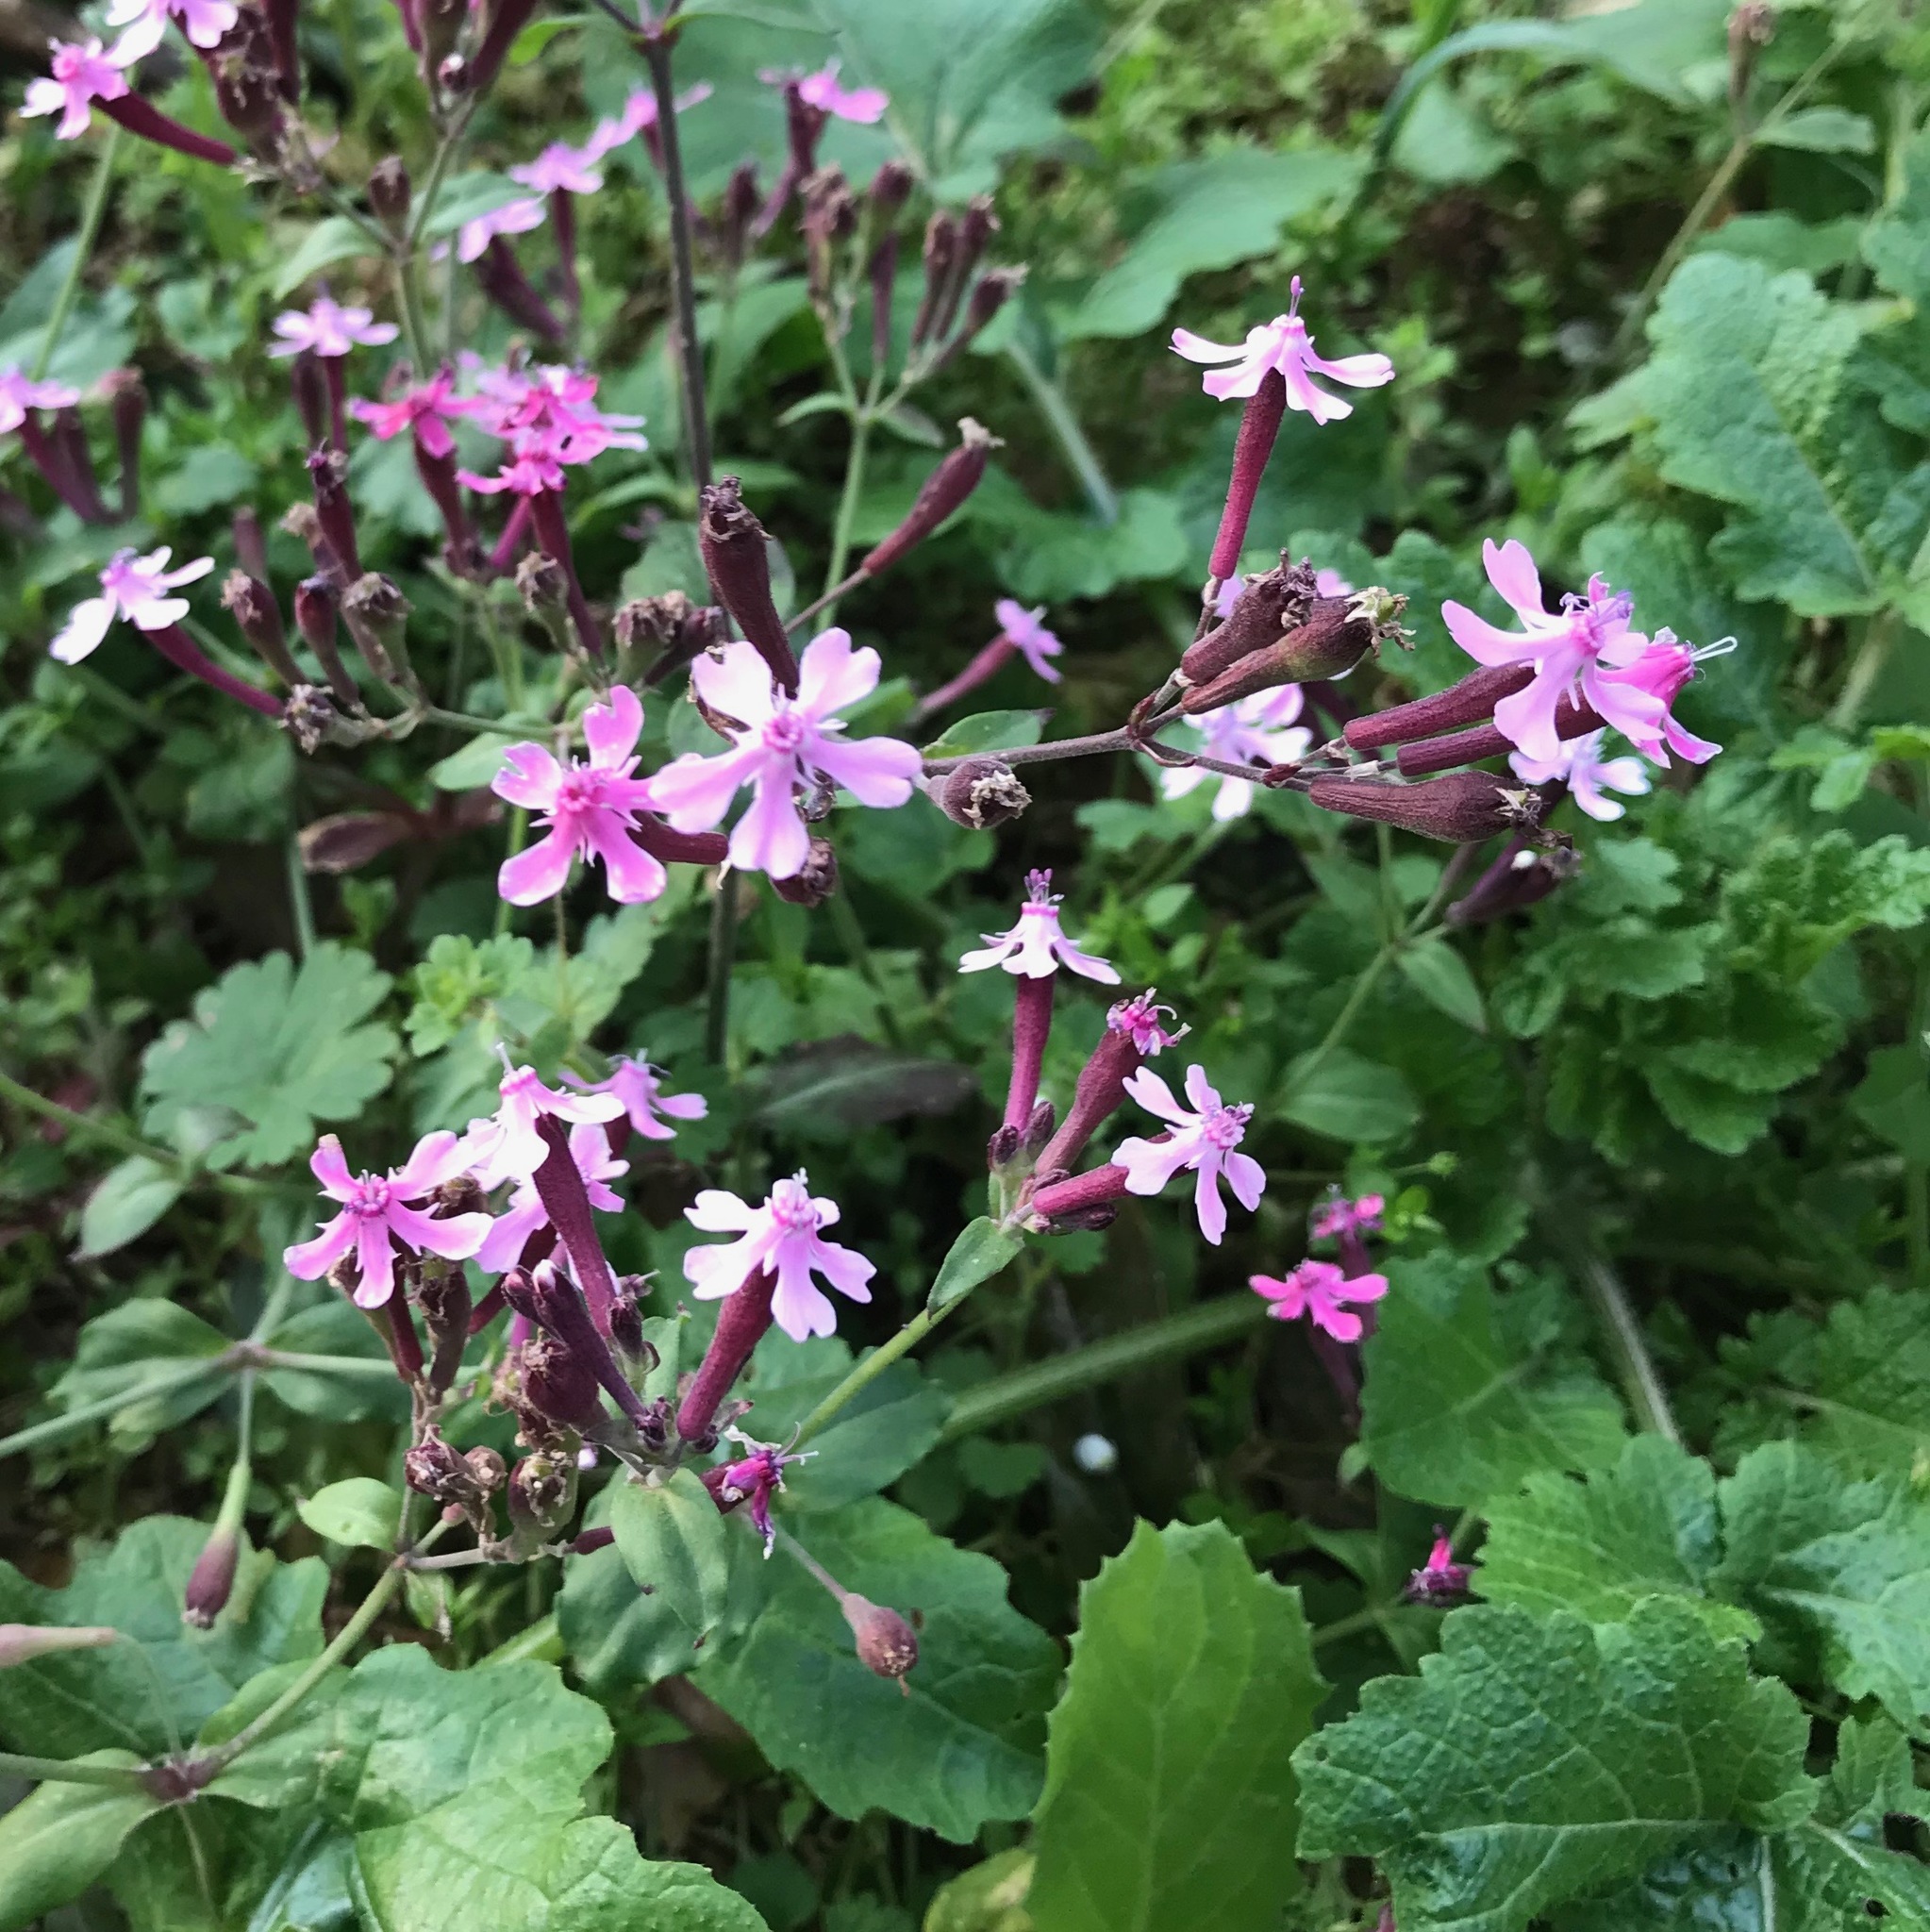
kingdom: Plantae
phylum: Tracheophyta
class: Magnoliopsida
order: Caryophyllales
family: Caryophyllaceae
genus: Silene
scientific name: Silene aegyptiaca
